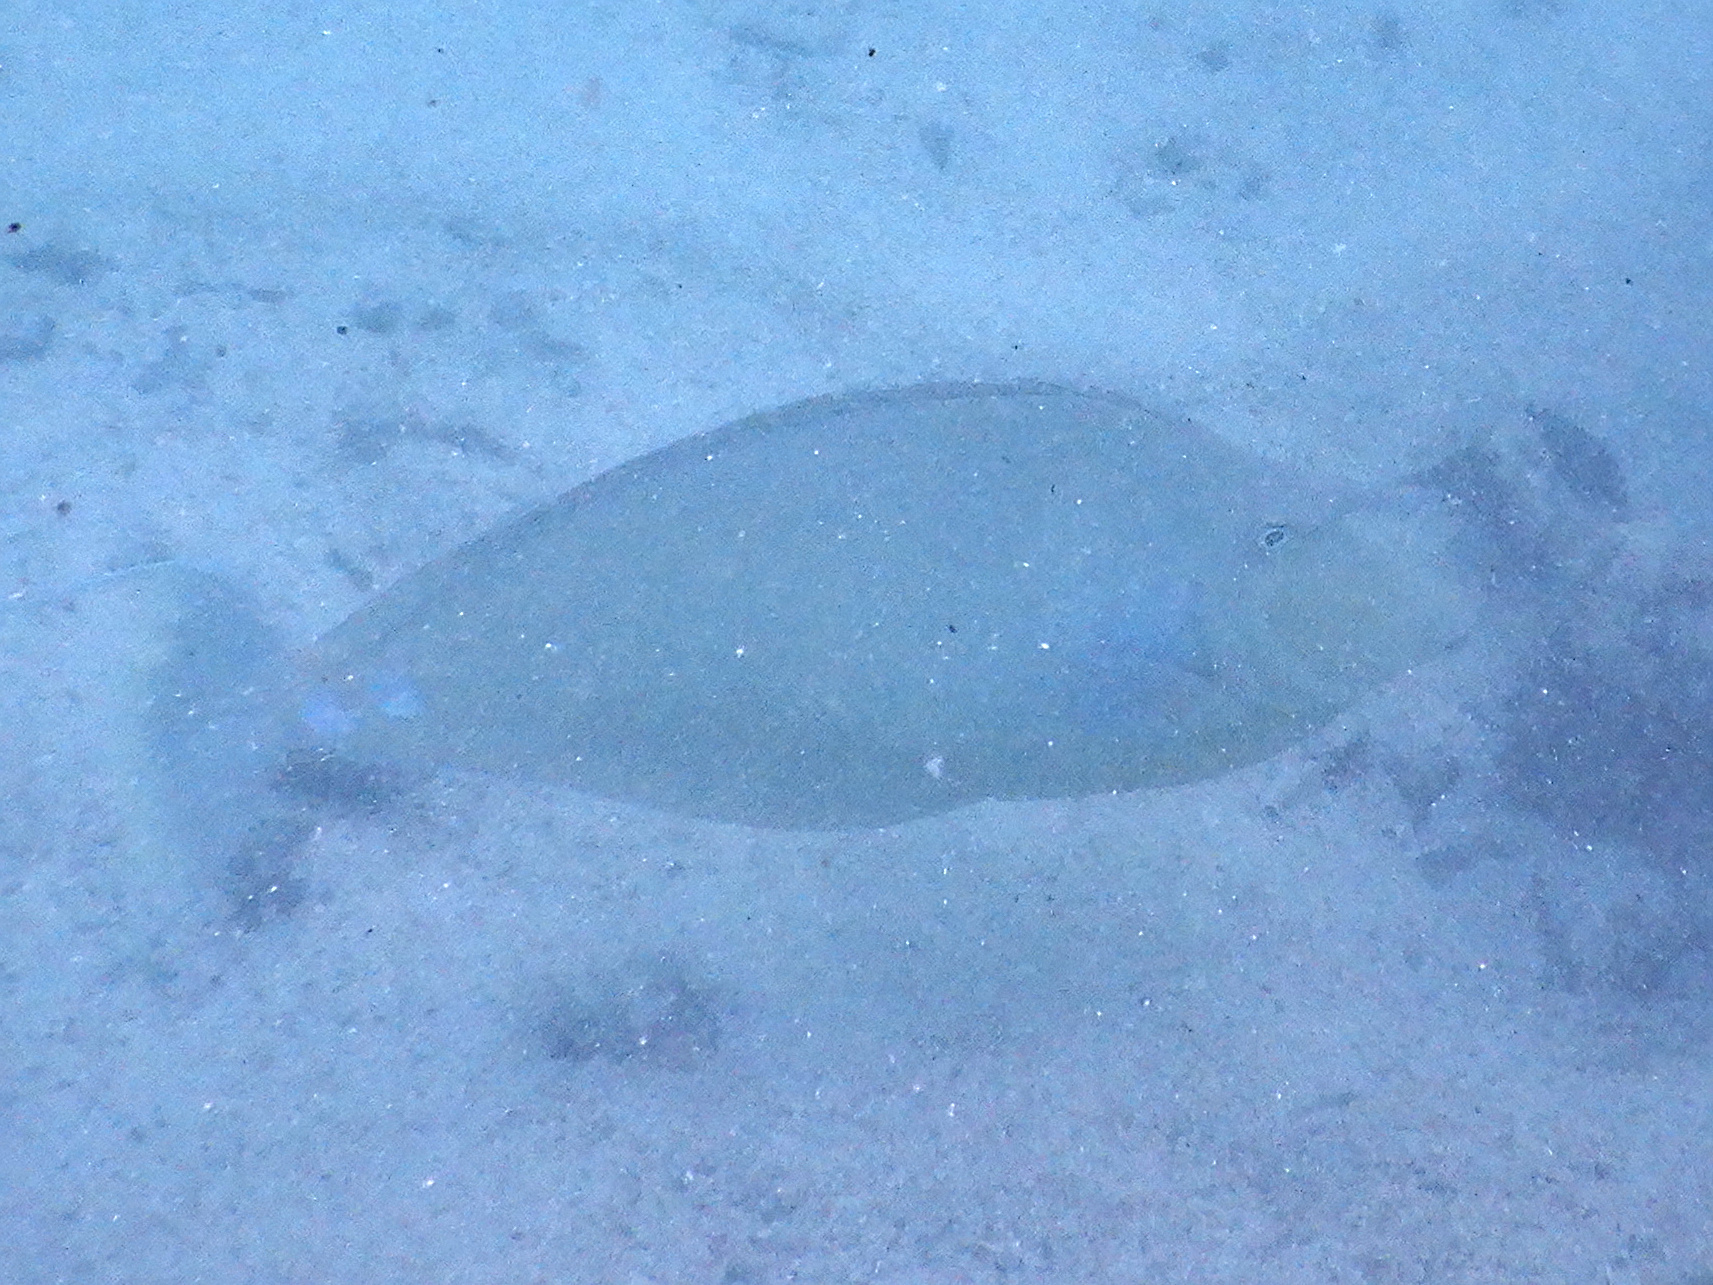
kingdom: Animalia
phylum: Chordata
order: Perciformes
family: Acanthuridae
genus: Naso
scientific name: Naso unicornis
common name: Bluespine unicornfish
